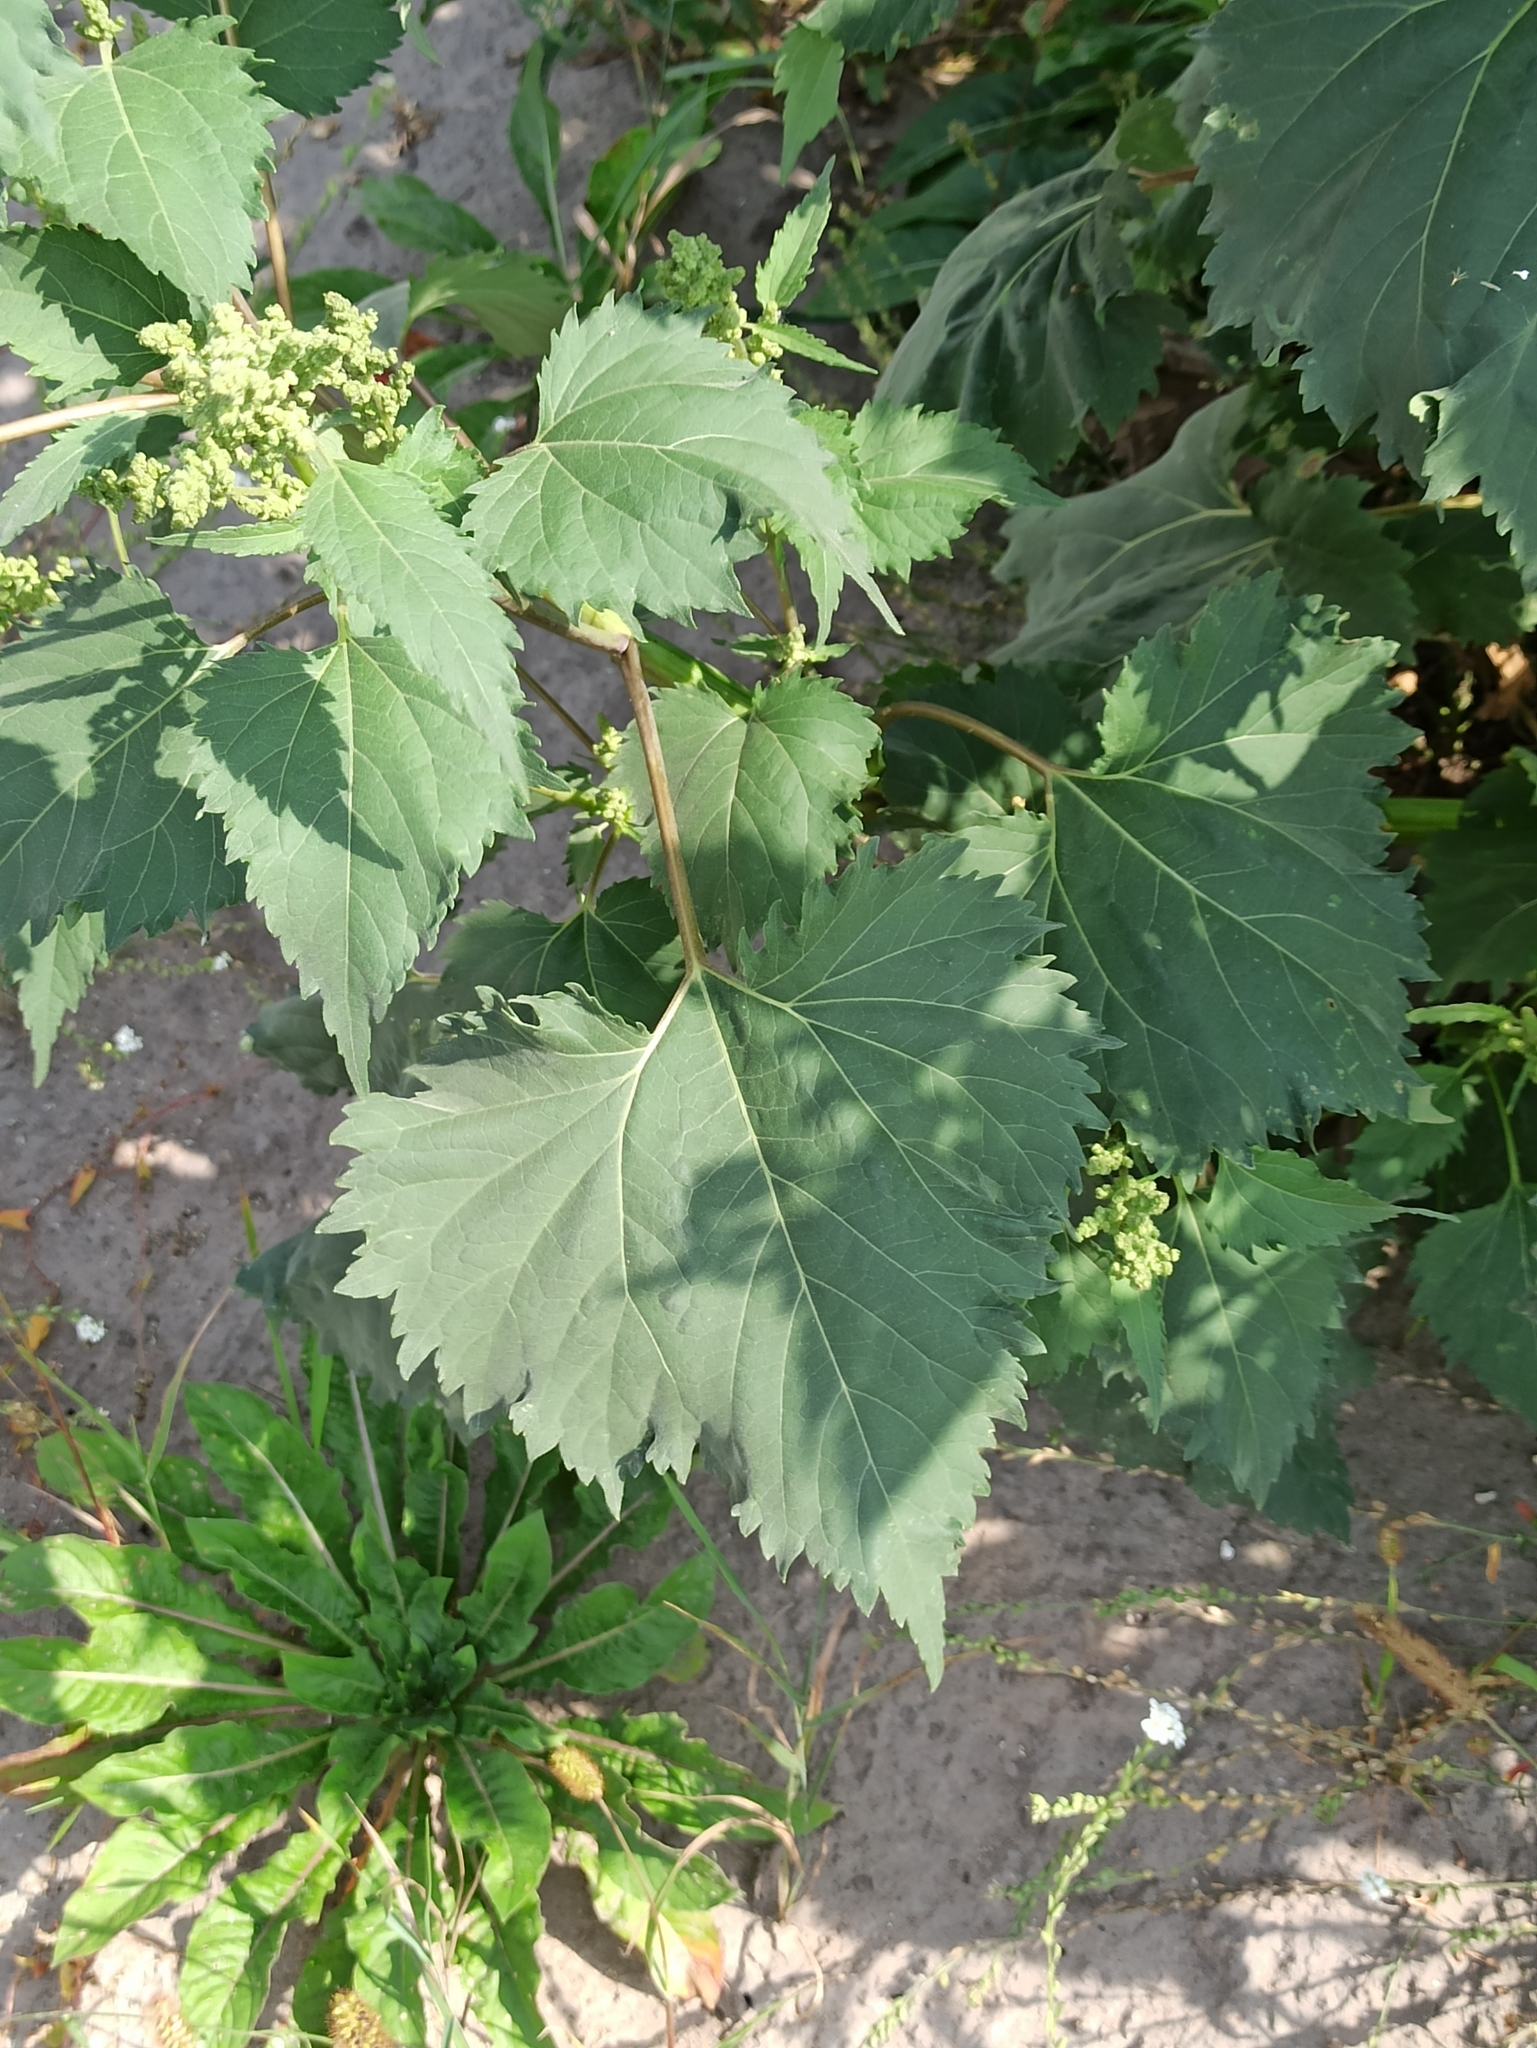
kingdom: Plantae
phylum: Tracheophyta
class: Magnoliopsida
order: Asterales
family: Asteraceae
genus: Cyclachaena
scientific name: Cyclachaena xanthiifolia
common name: Giant sumpweed
